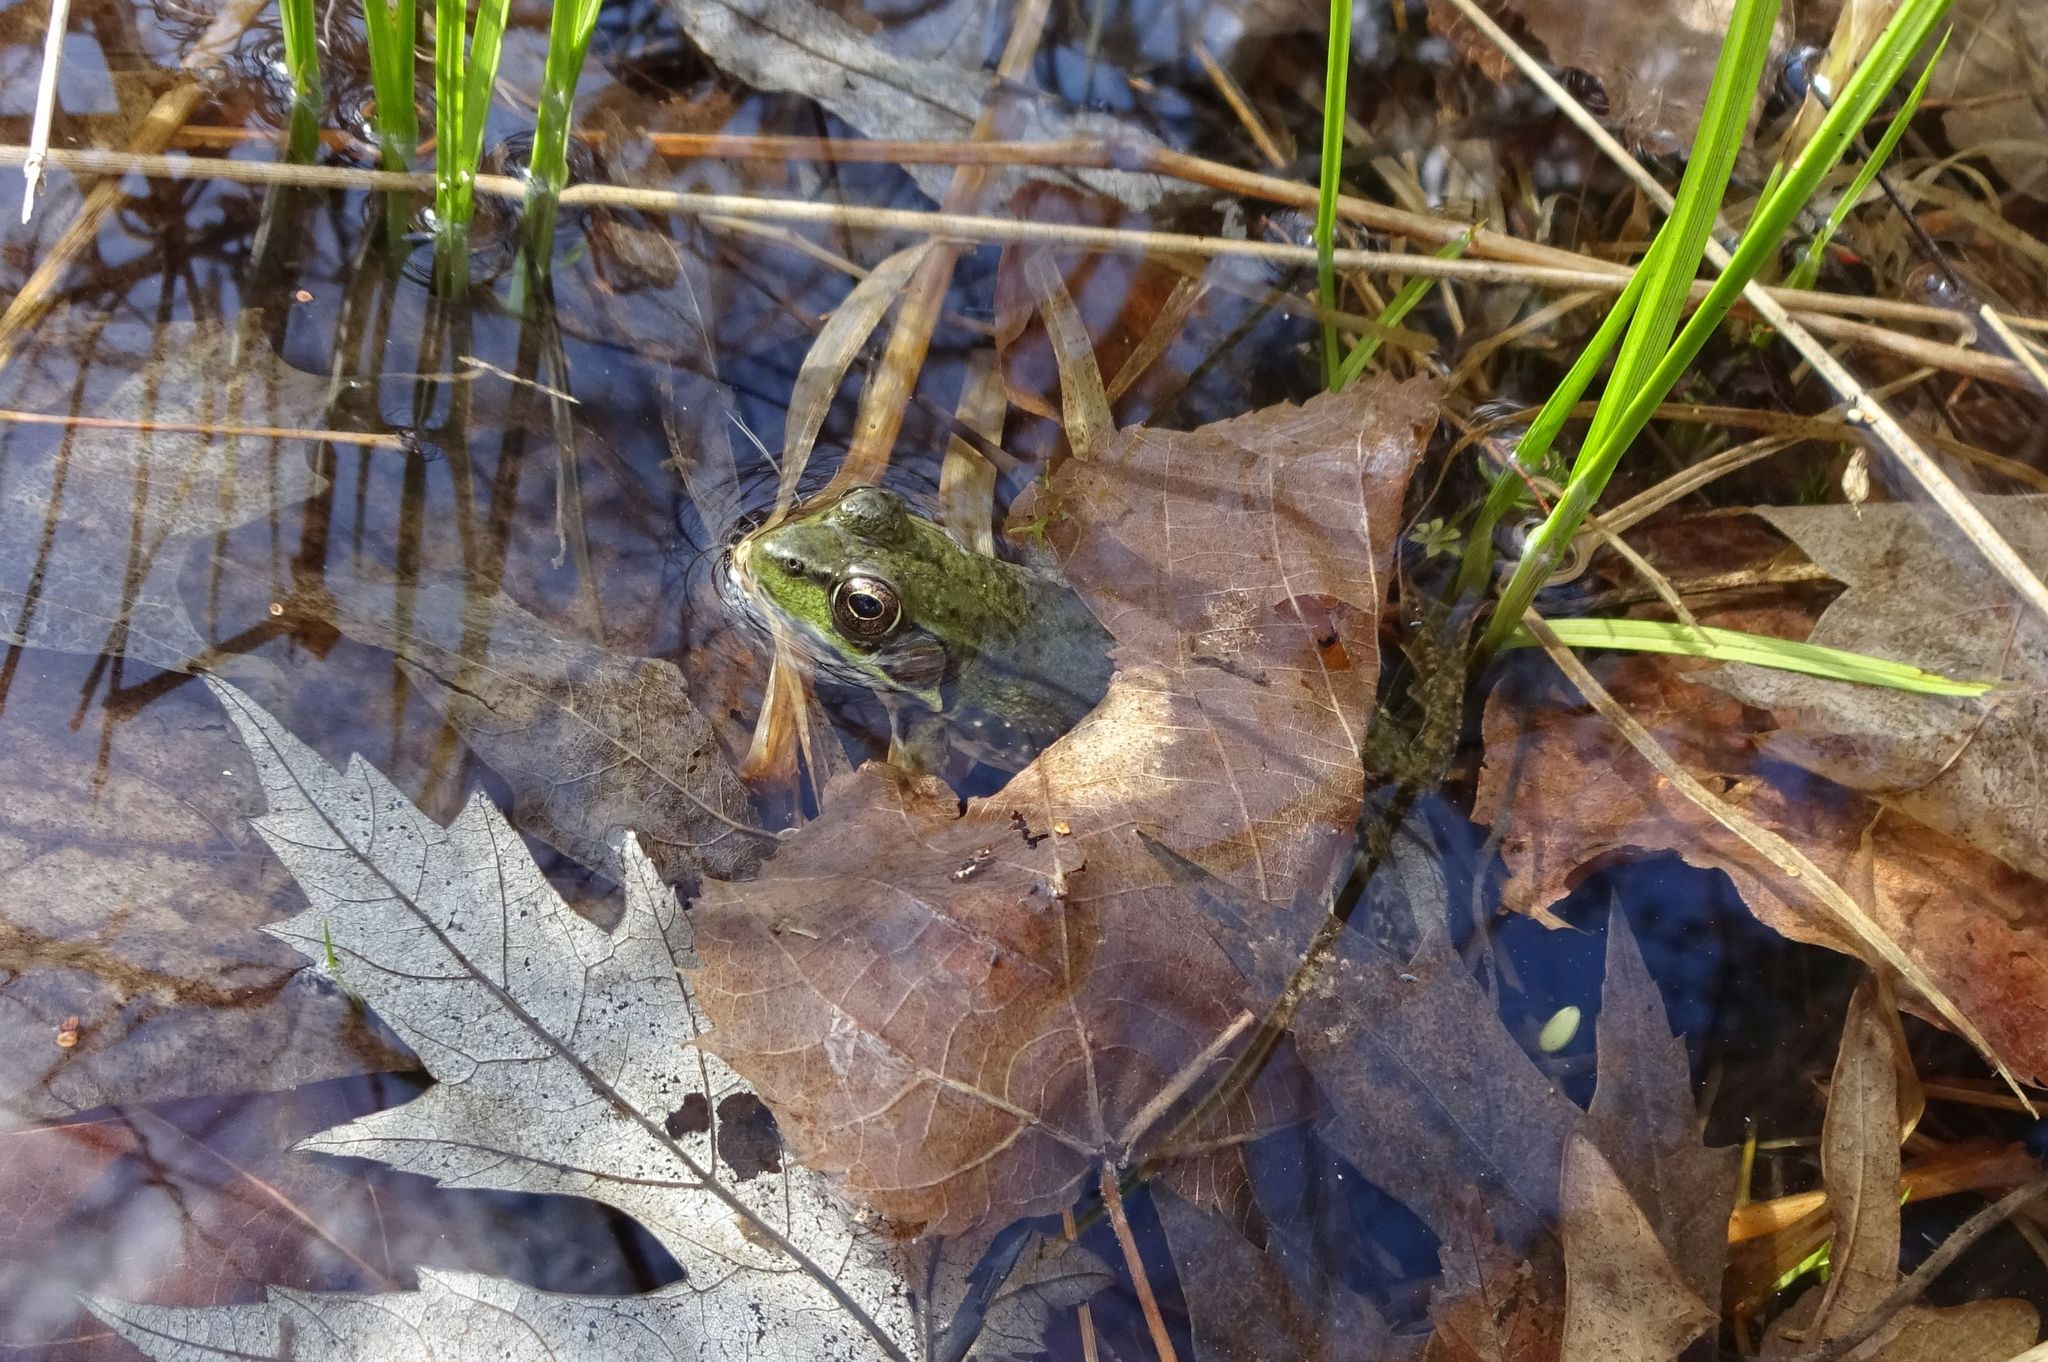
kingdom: Animalia
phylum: Chordata
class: Amphibia
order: Anura
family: Ranidae
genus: Lithobates
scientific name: Lithobates clamitans
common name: Green frog
